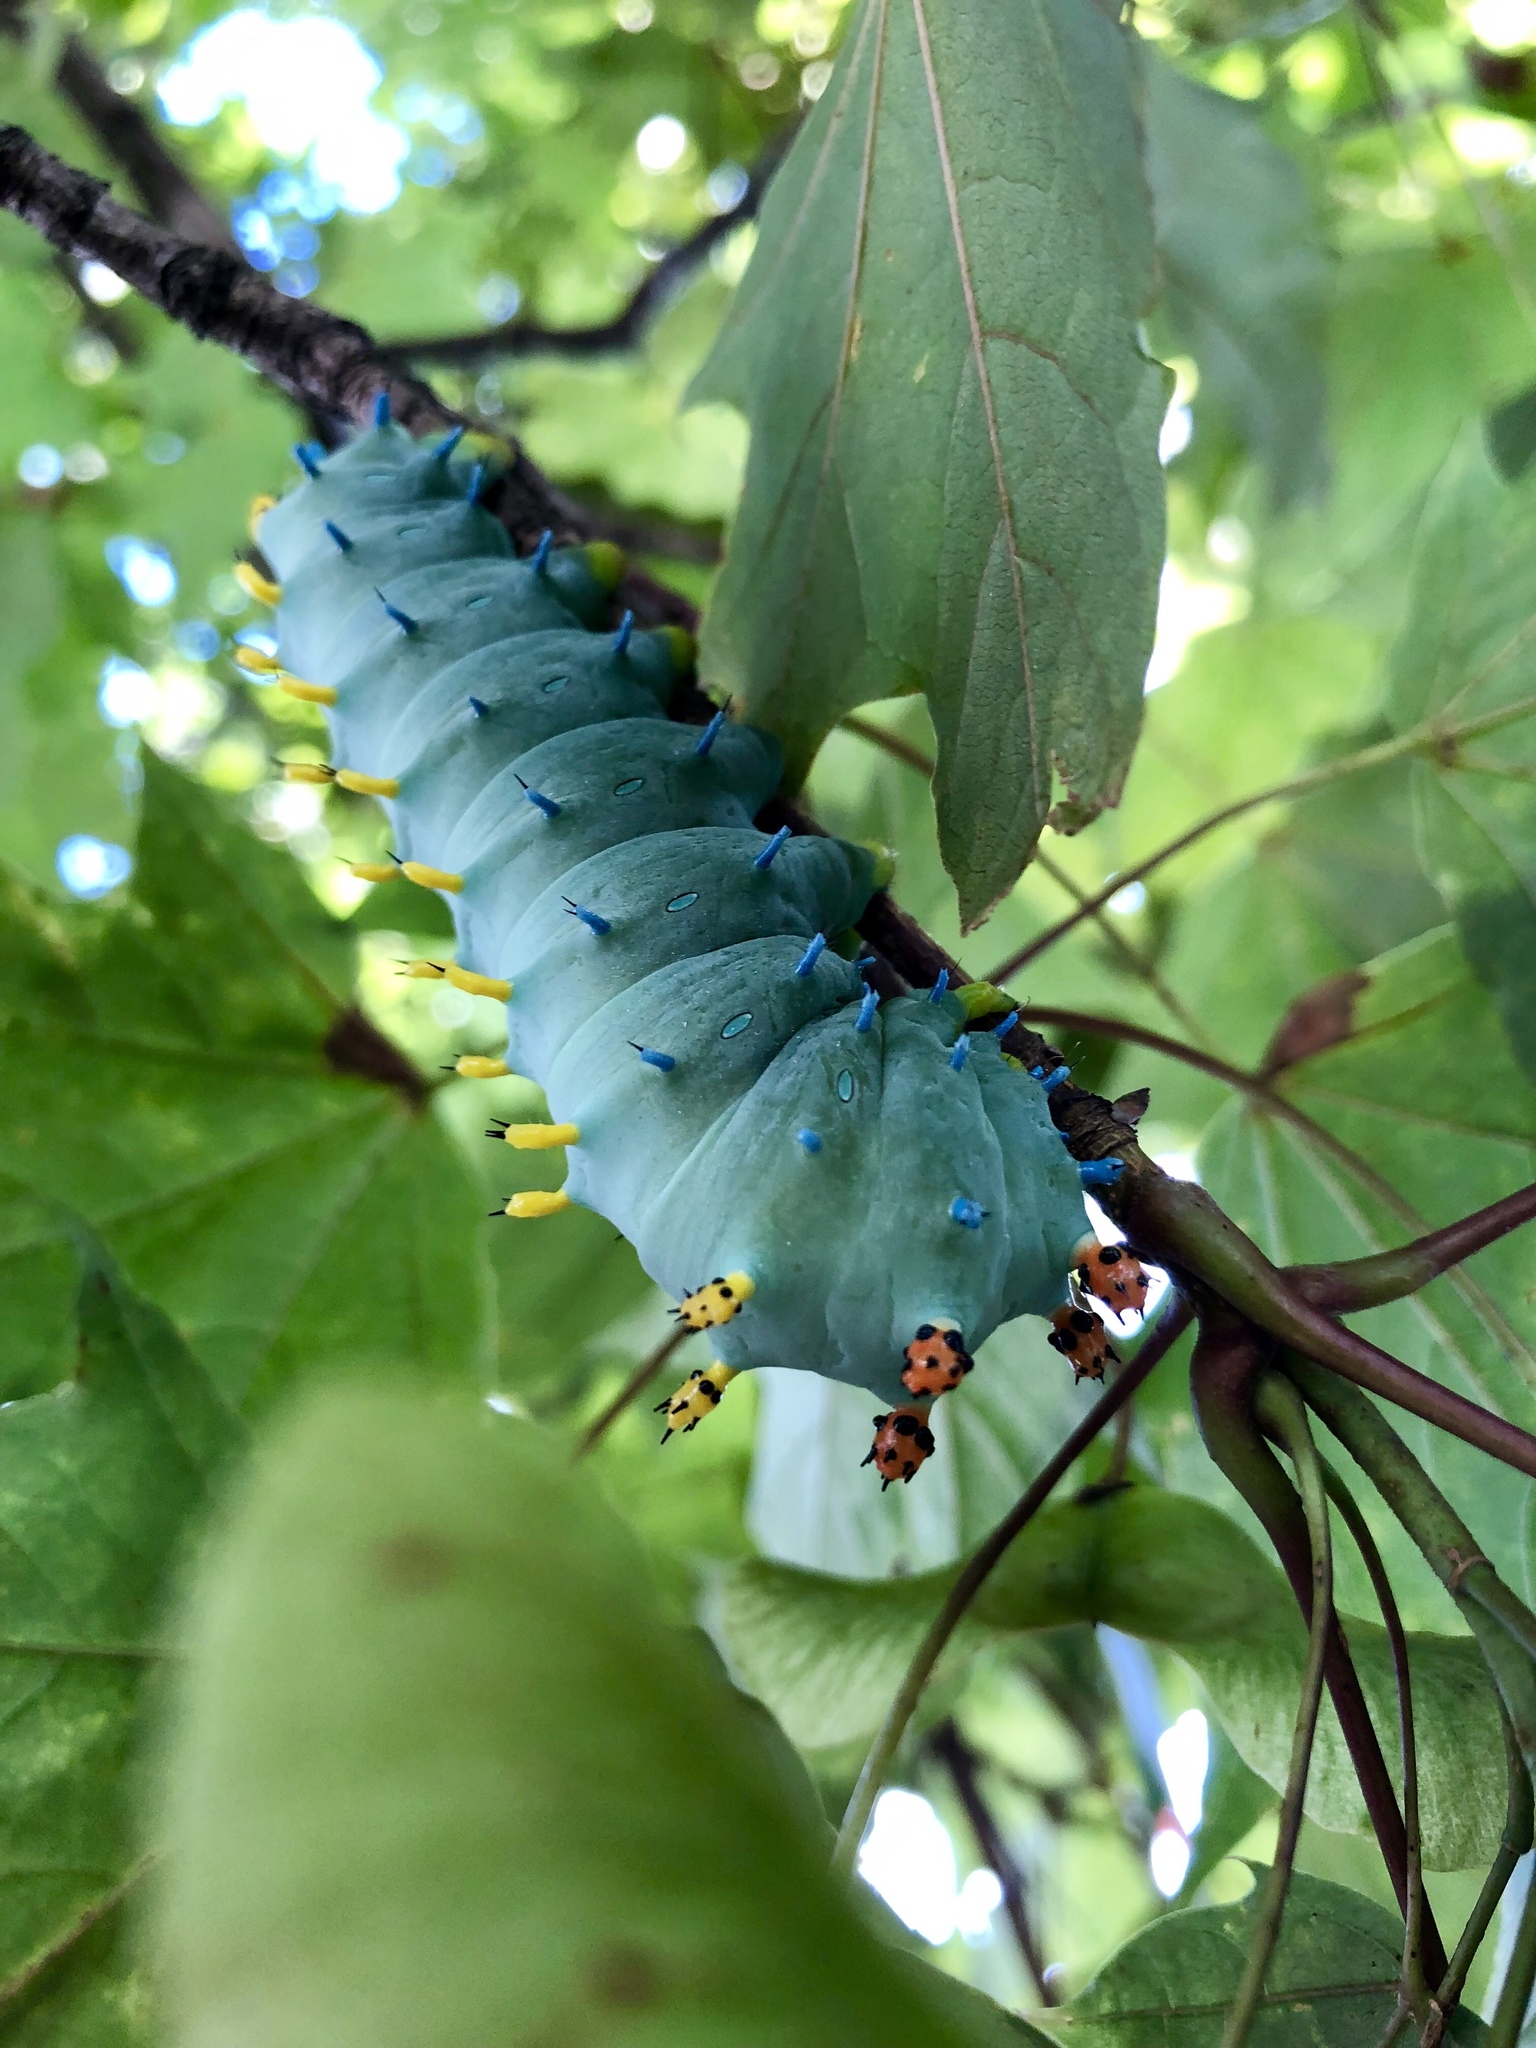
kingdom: Animalia
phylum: Arthropoda
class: Insecta
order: Lepidoptera
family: Saturniidae
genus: Hyalophora
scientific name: Hyalophora cecropia
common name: Cecropia silkmoth
